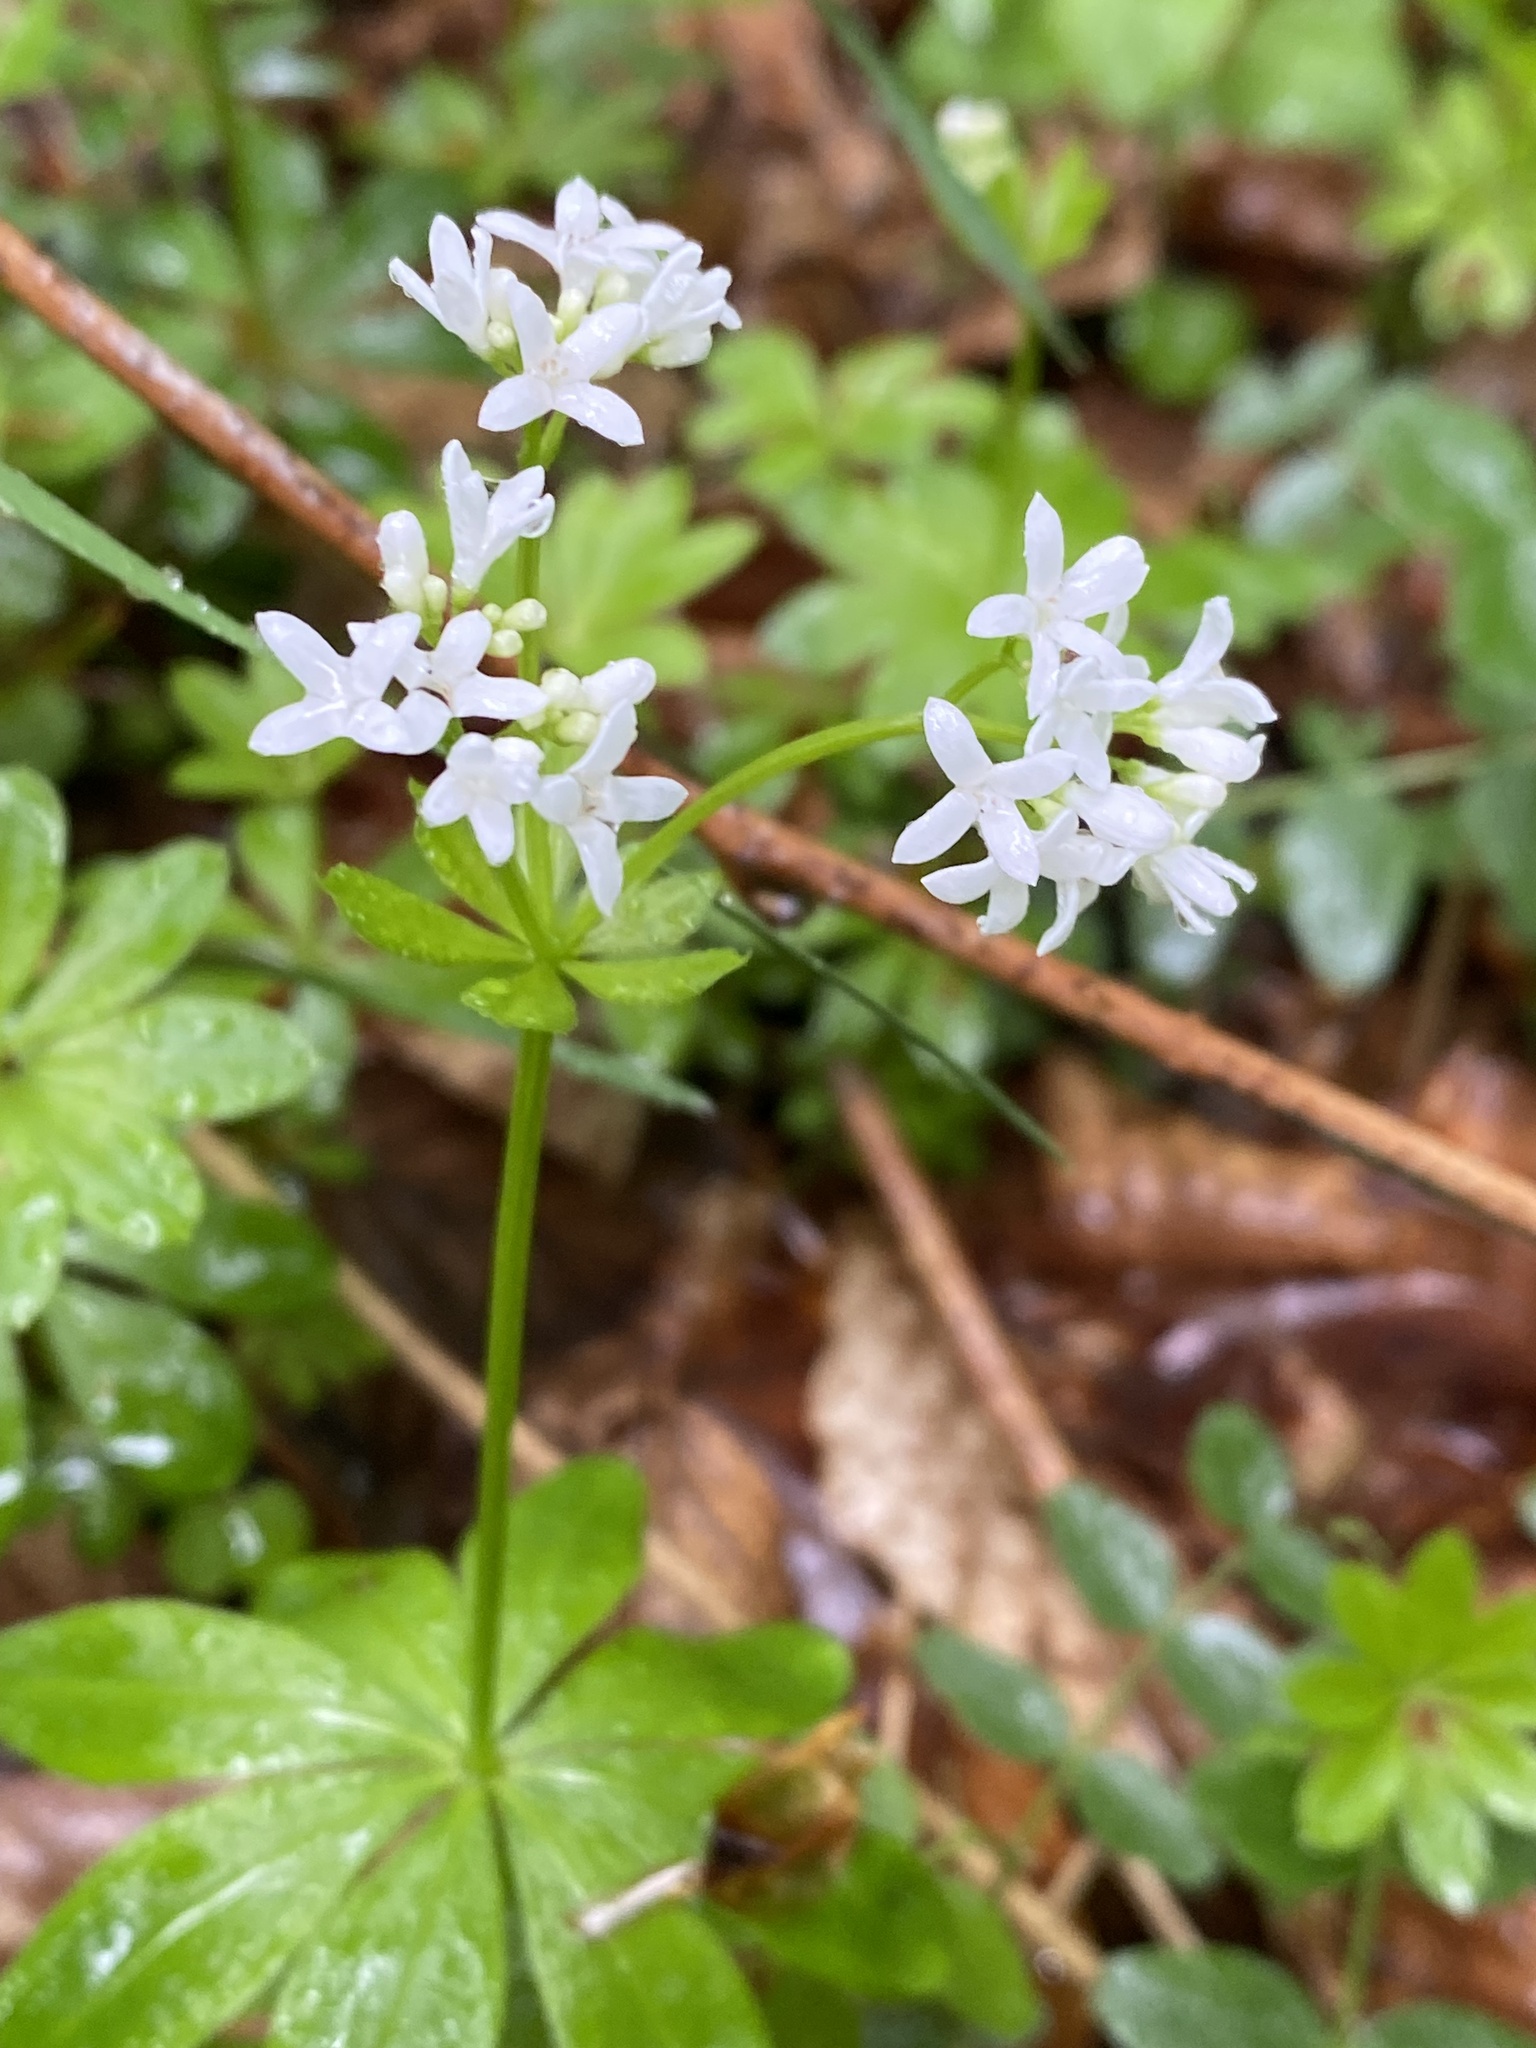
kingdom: Plantae
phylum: Tracheophyta
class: Magnoliopsida
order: Gentianales
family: Rubiaceae
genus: Galium
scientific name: Galium odoratum
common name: Sweet woodruff
